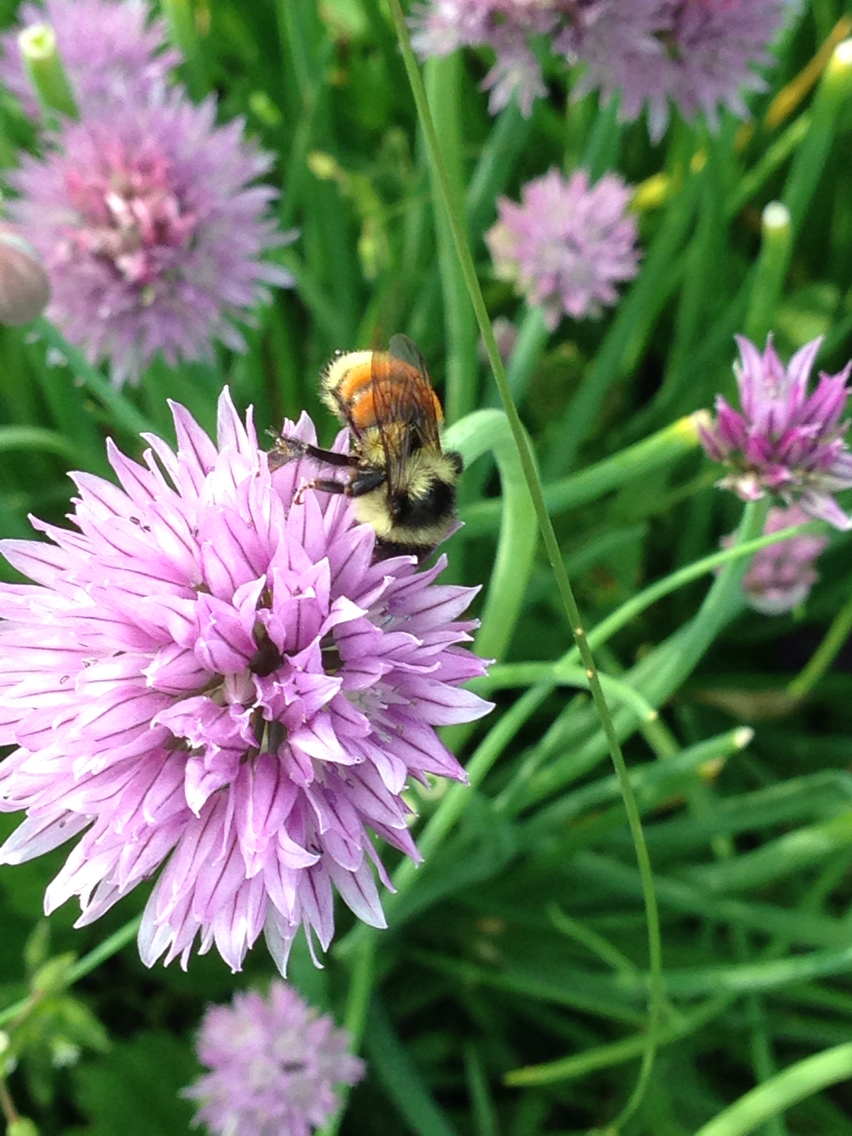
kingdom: Animalia
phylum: Arthropoda
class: Insecta
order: Hymenoptera
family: Apidae
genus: Bombus
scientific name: Bombus ternarius
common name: Tri-colored bumble bee
